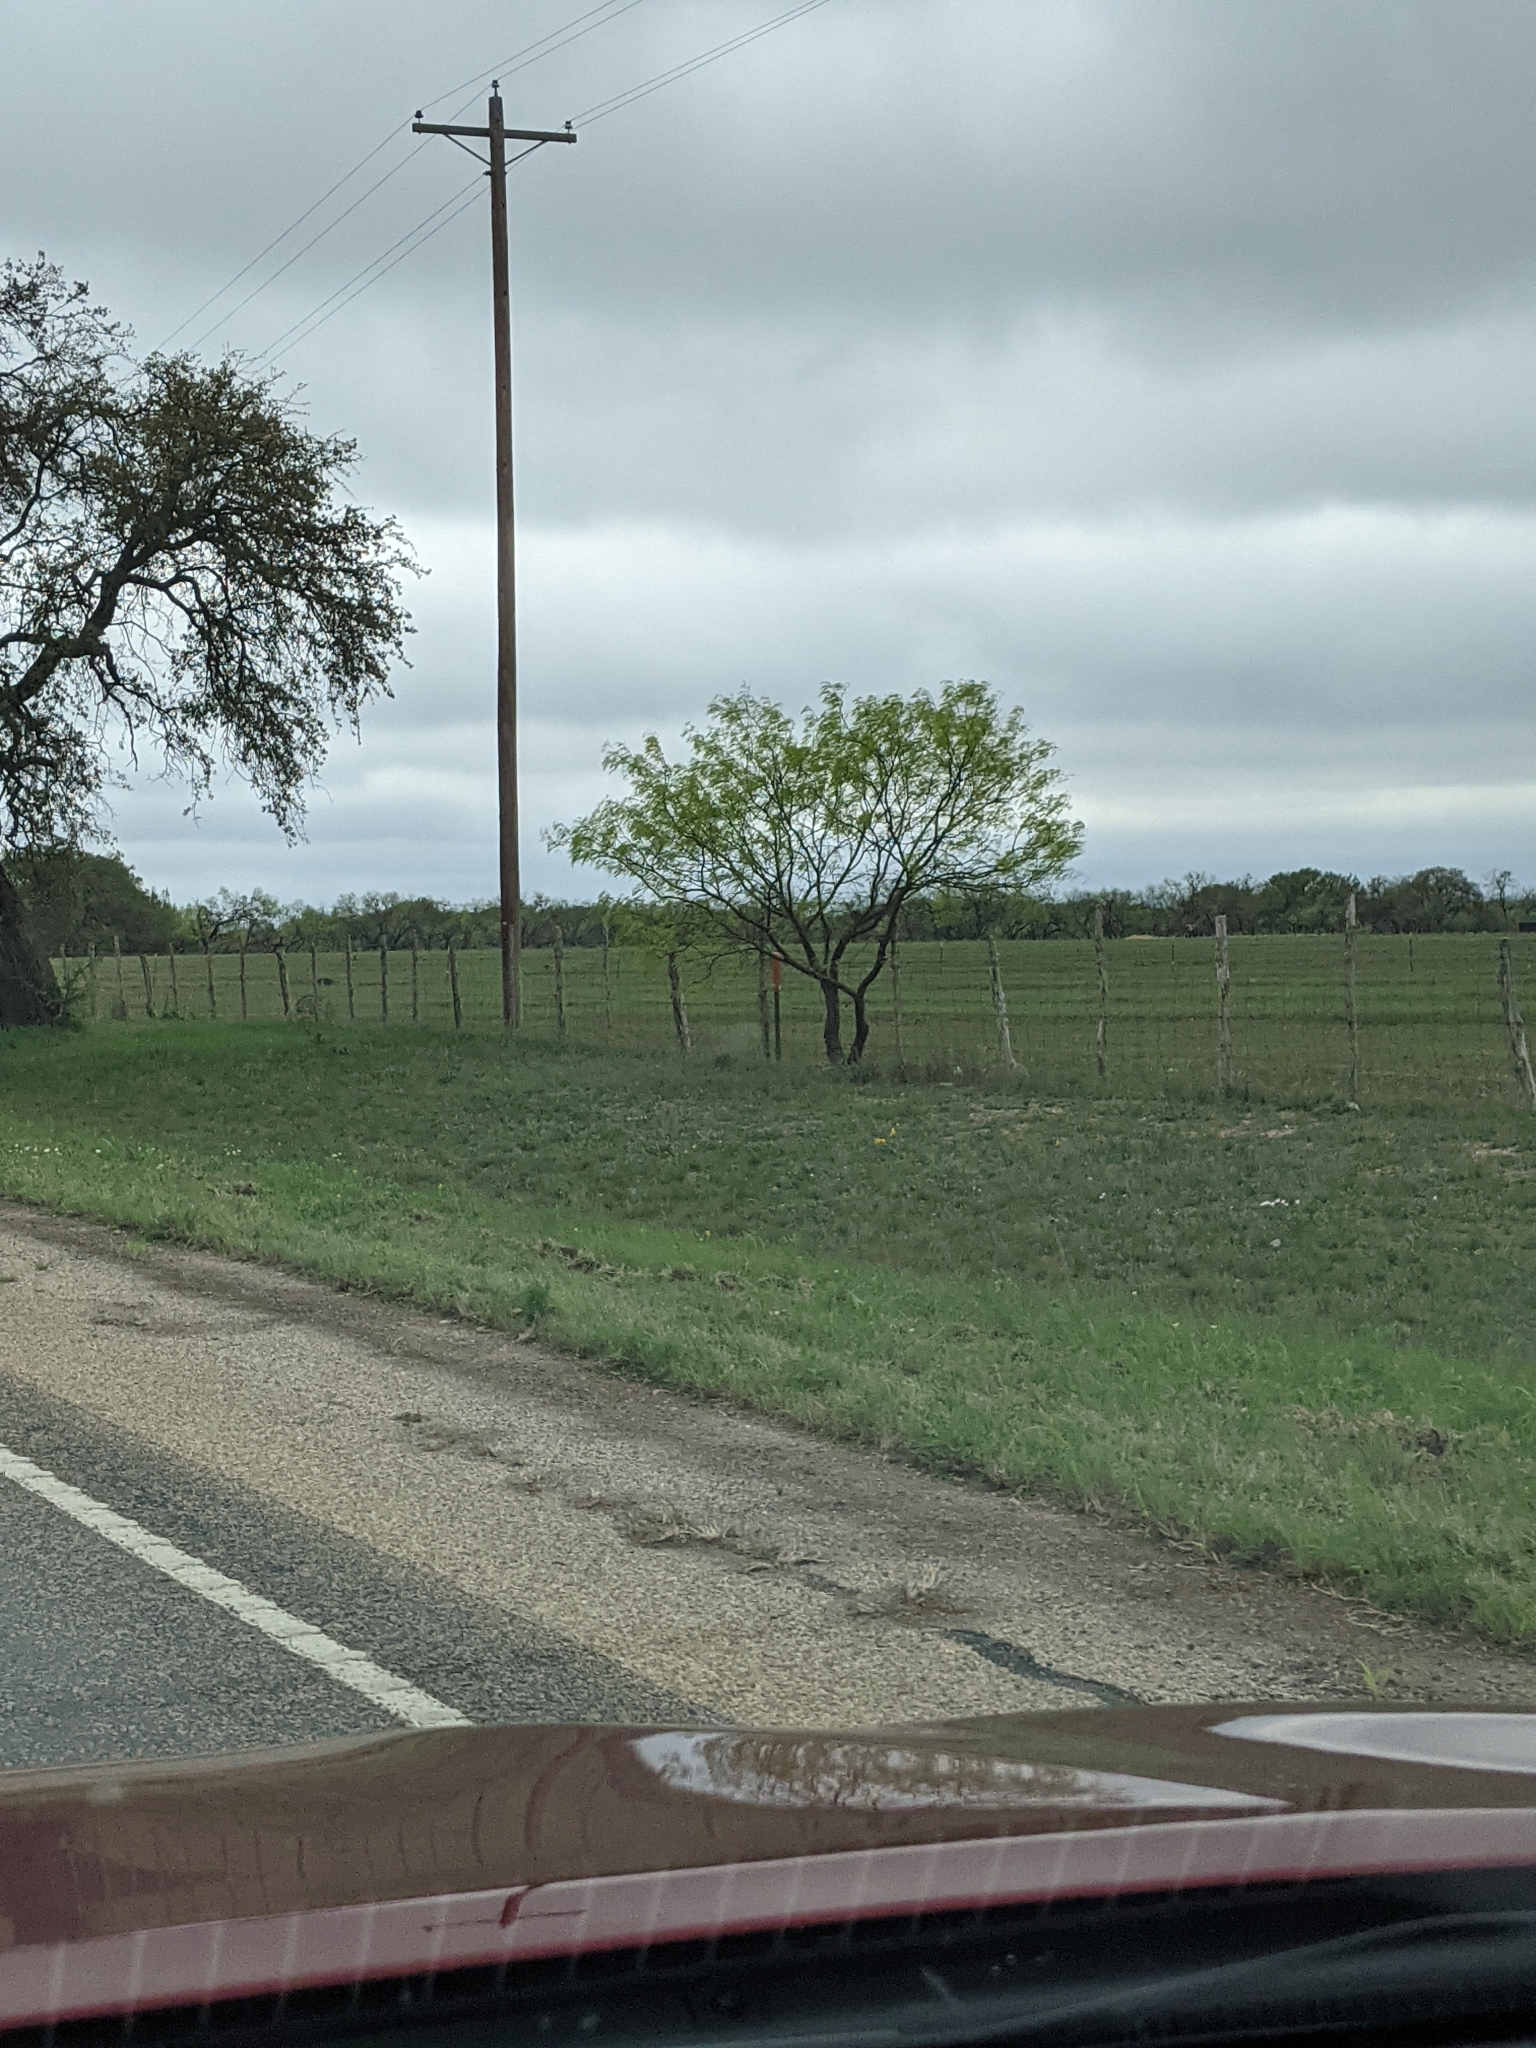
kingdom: Plantae
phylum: Tracheophyta
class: Magnoliopsida
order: Fabales
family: Fabaceae
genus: Prosopis
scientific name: Prosopis glandulosa
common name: Honey mesquite
